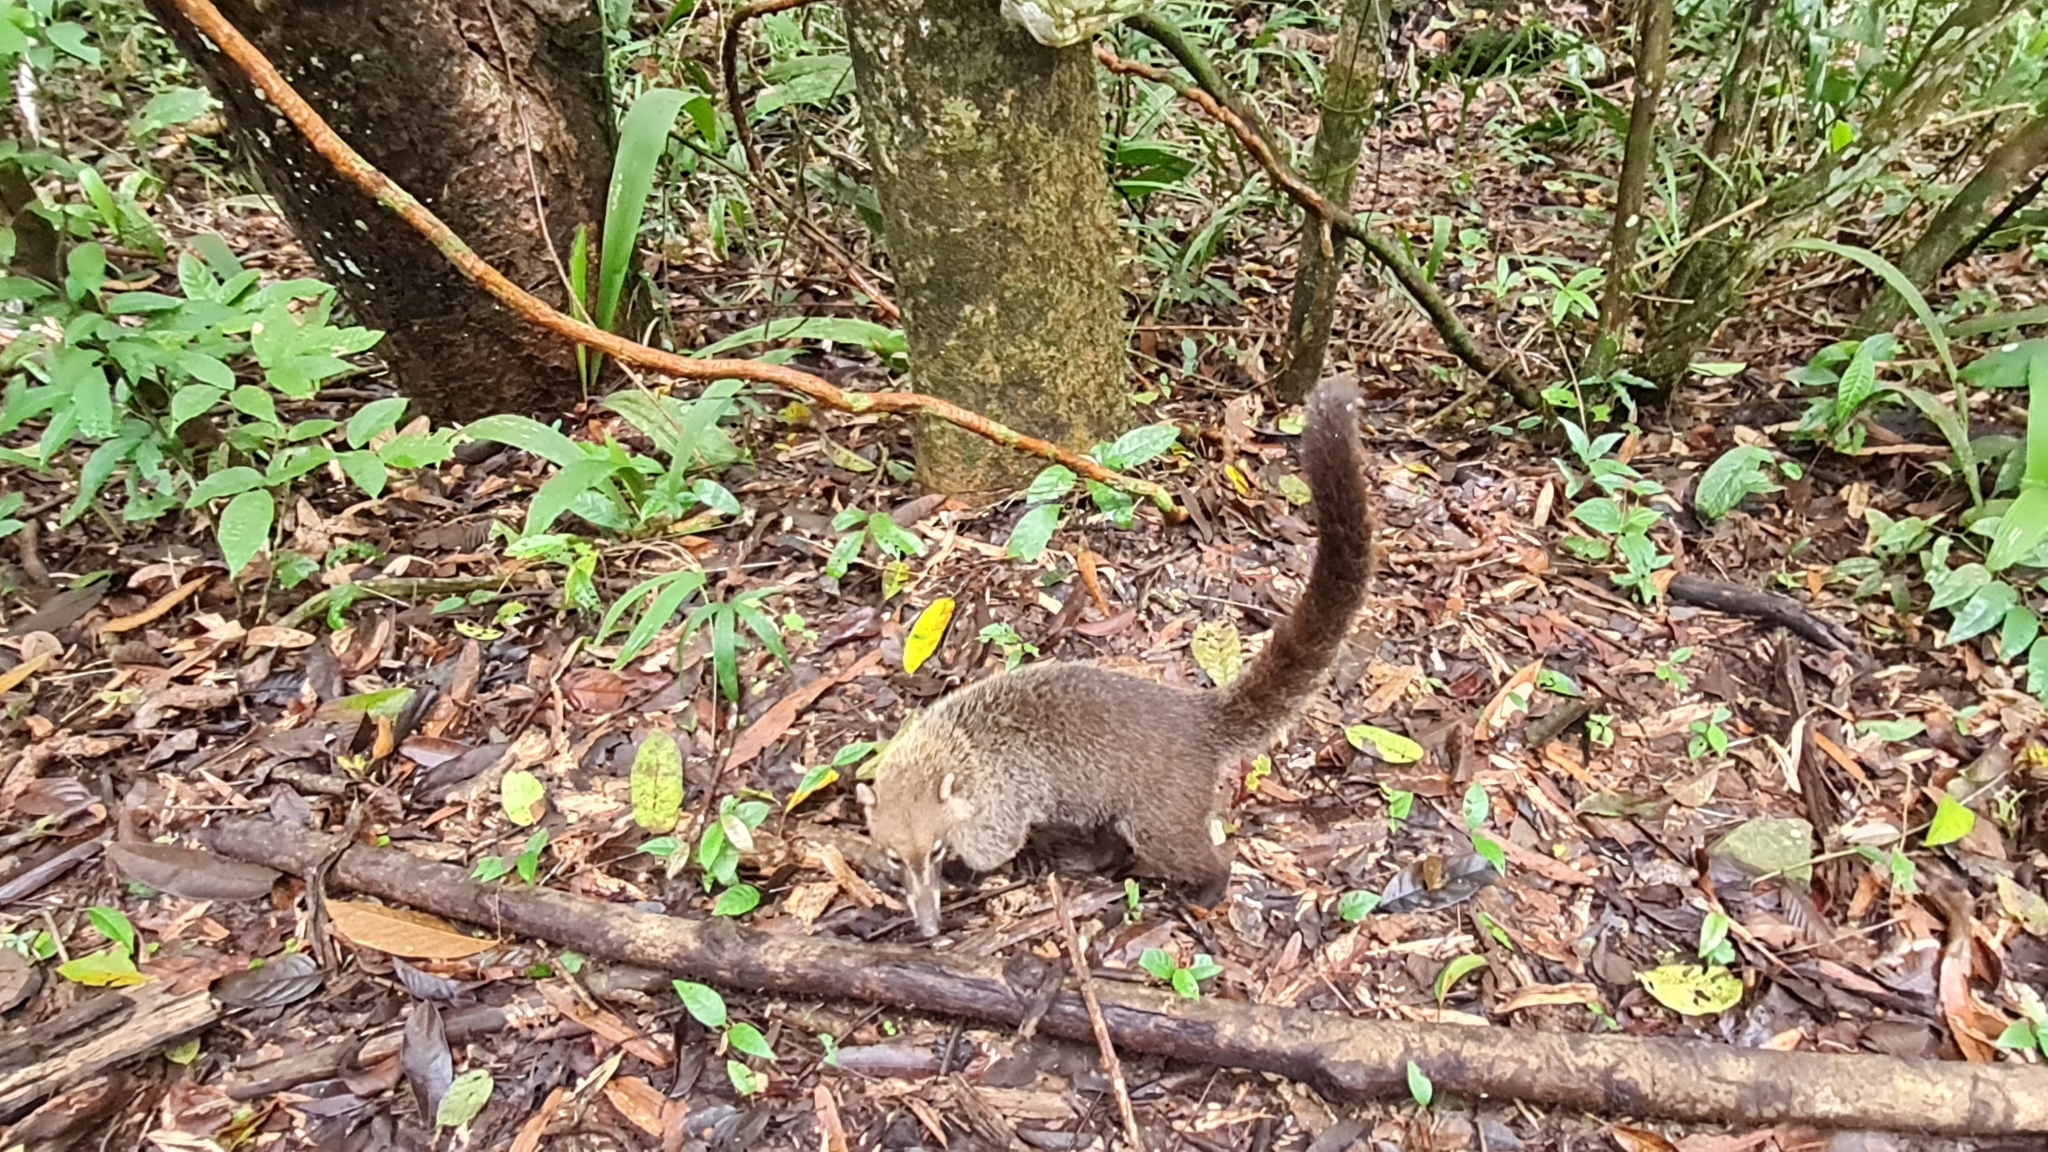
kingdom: Animalia
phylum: Chordata
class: Mammalia
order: Carnivora
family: Procyonidae
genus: Nasua
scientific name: Nasua narica
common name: White-nosed coati
